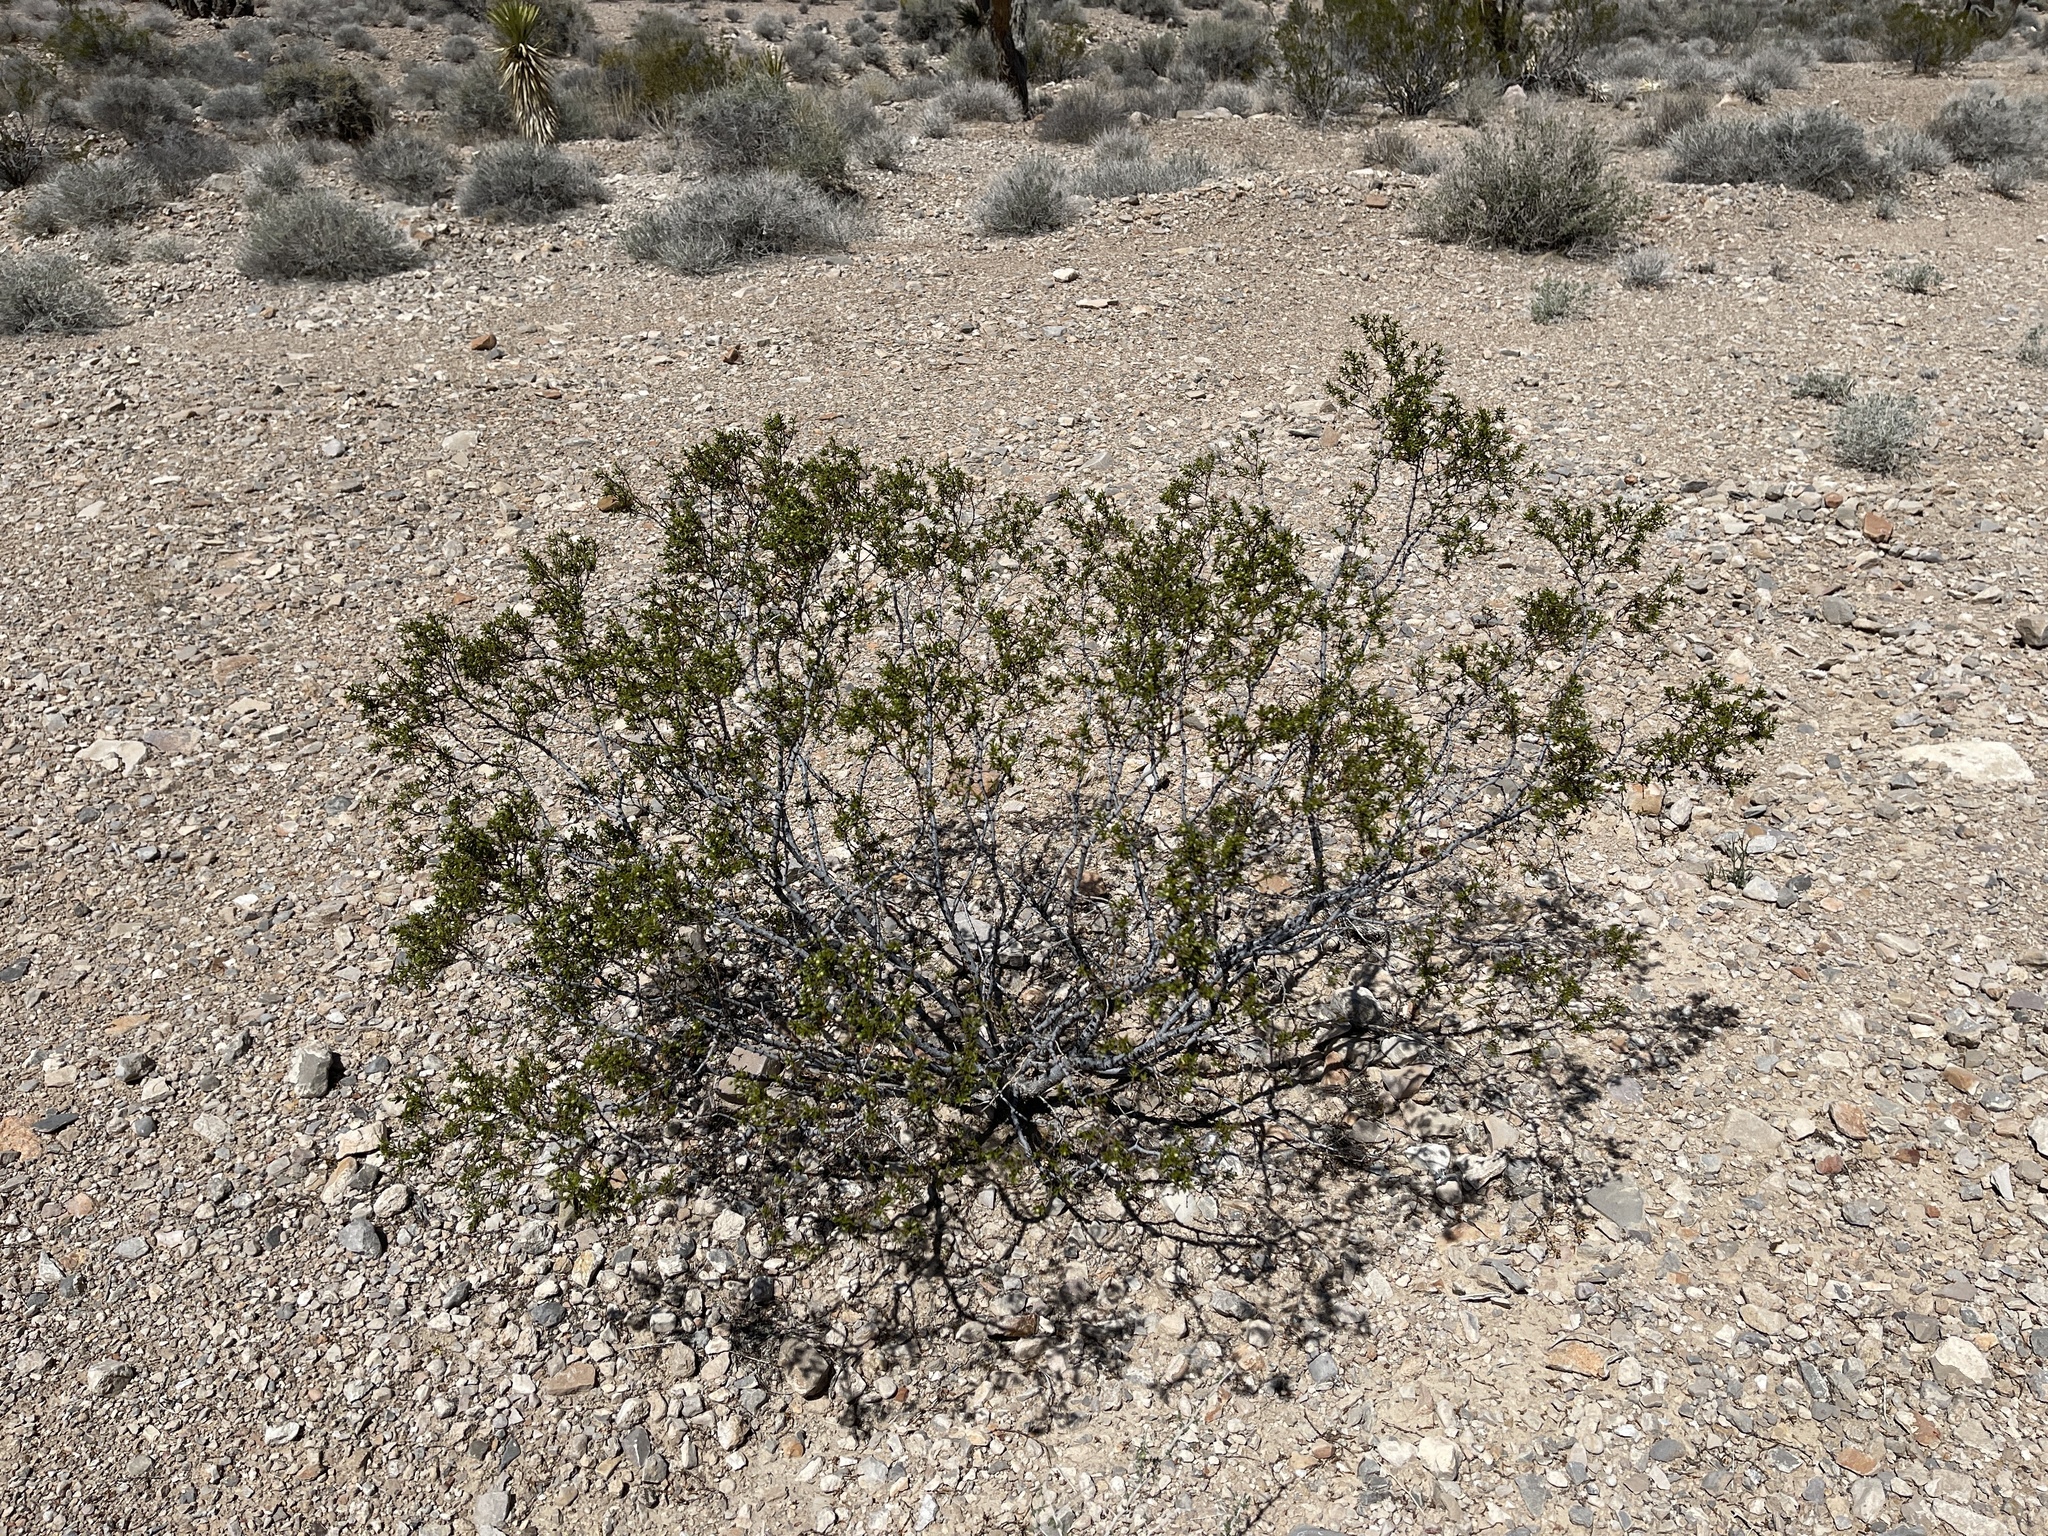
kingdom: Plantae
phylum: Tracheophyta
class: Magnoliopsida
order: Zygophyllales
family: Zygophyllaceae
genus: Larrea
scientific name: Larrea tridentata
